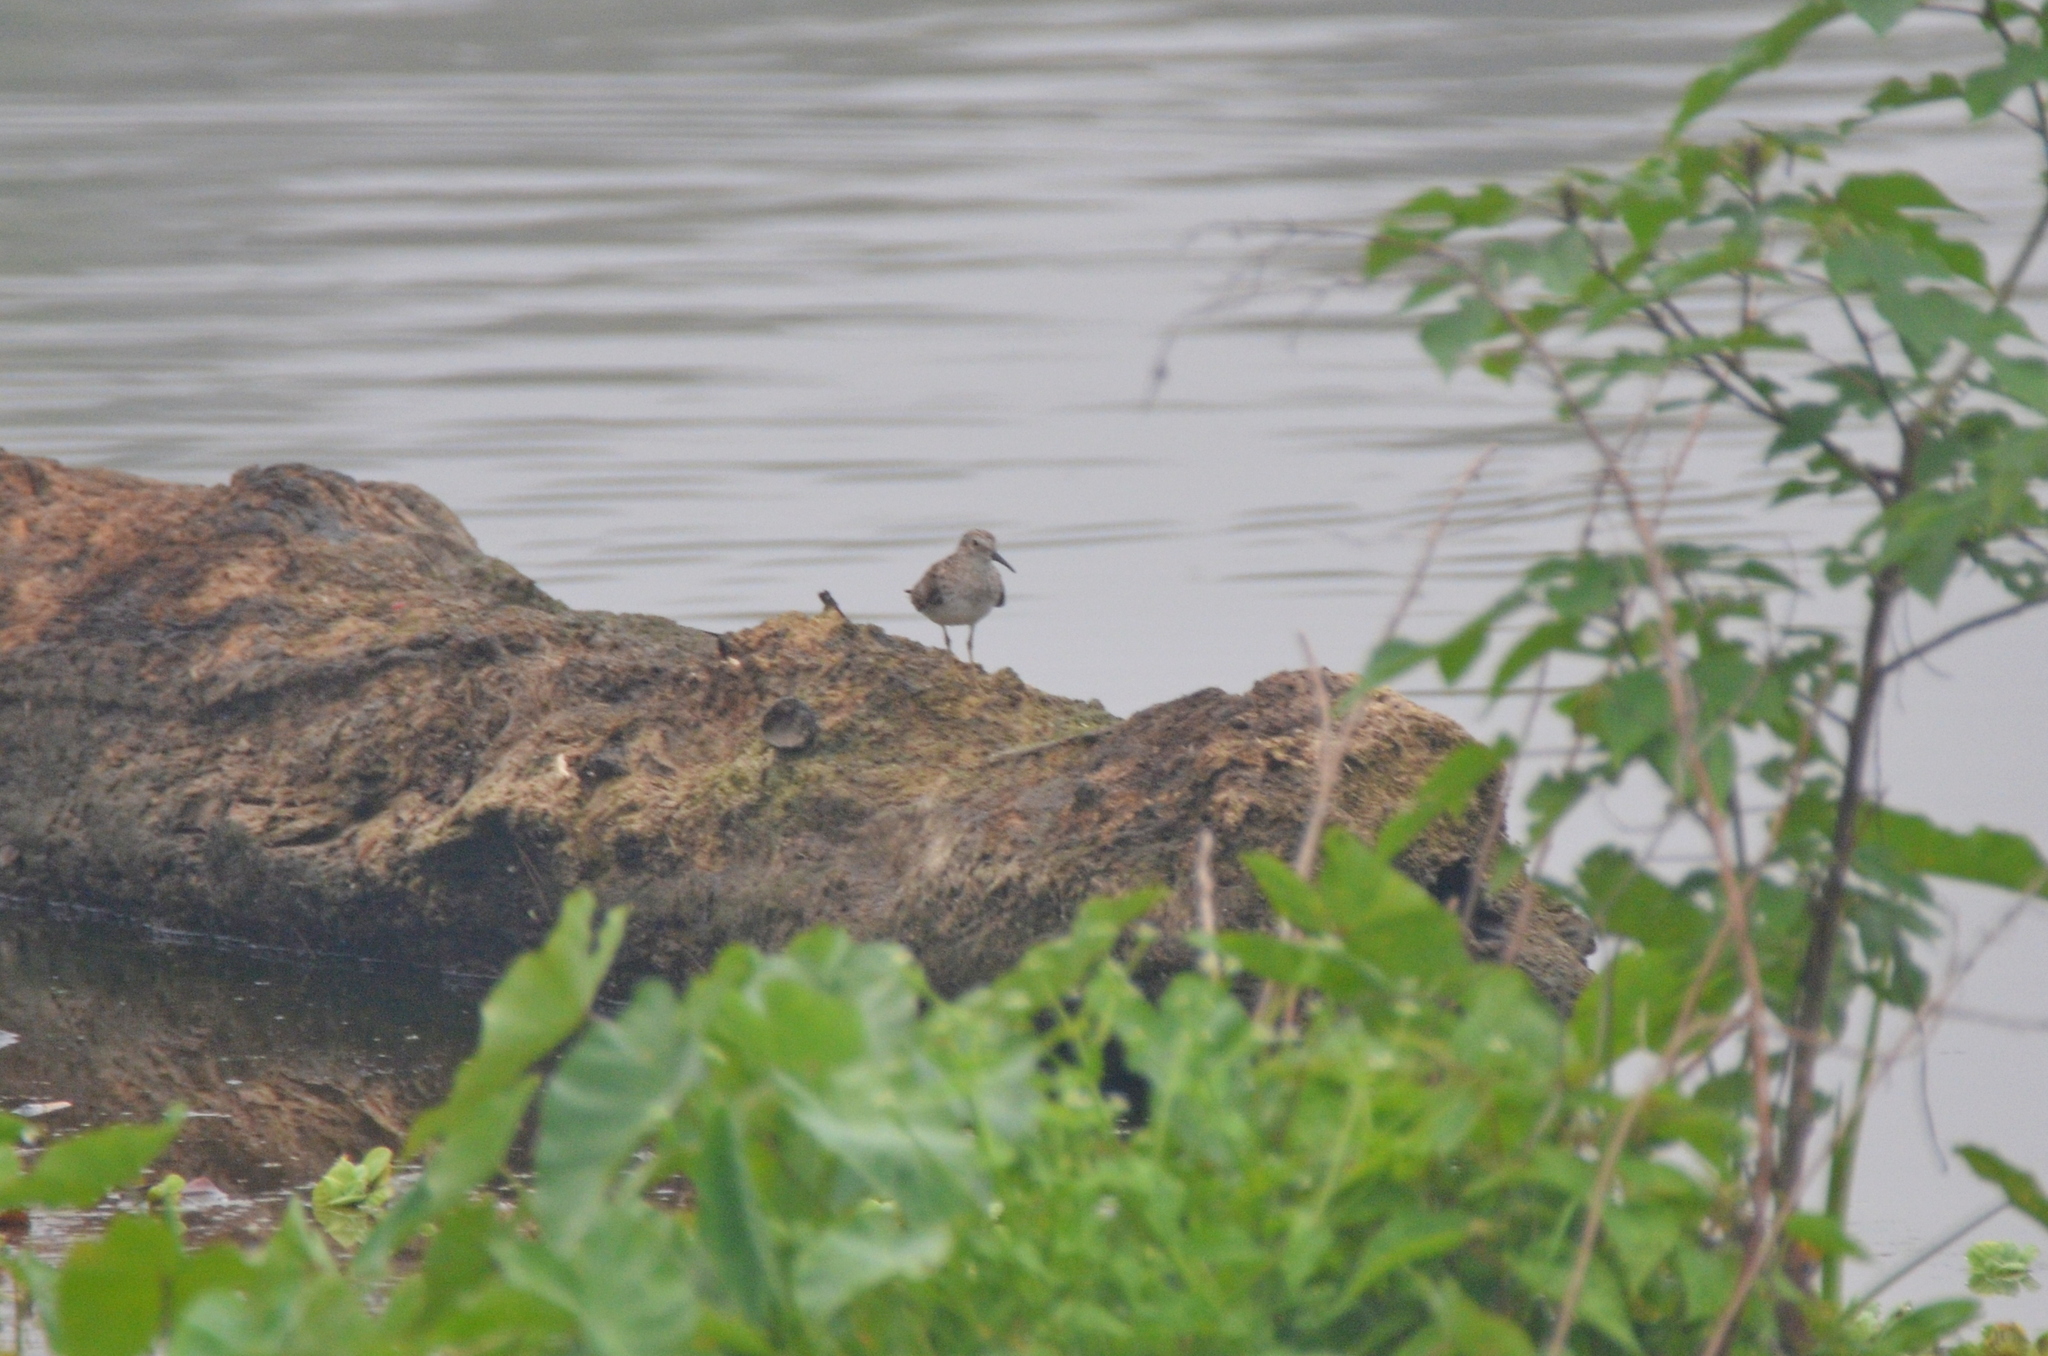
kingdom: Animalia
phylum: Chordata
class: Aves
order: Charadriiformes
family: Scolopacidae
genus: Calidris
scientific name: Calidris minutilla
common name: Least sandpiper
